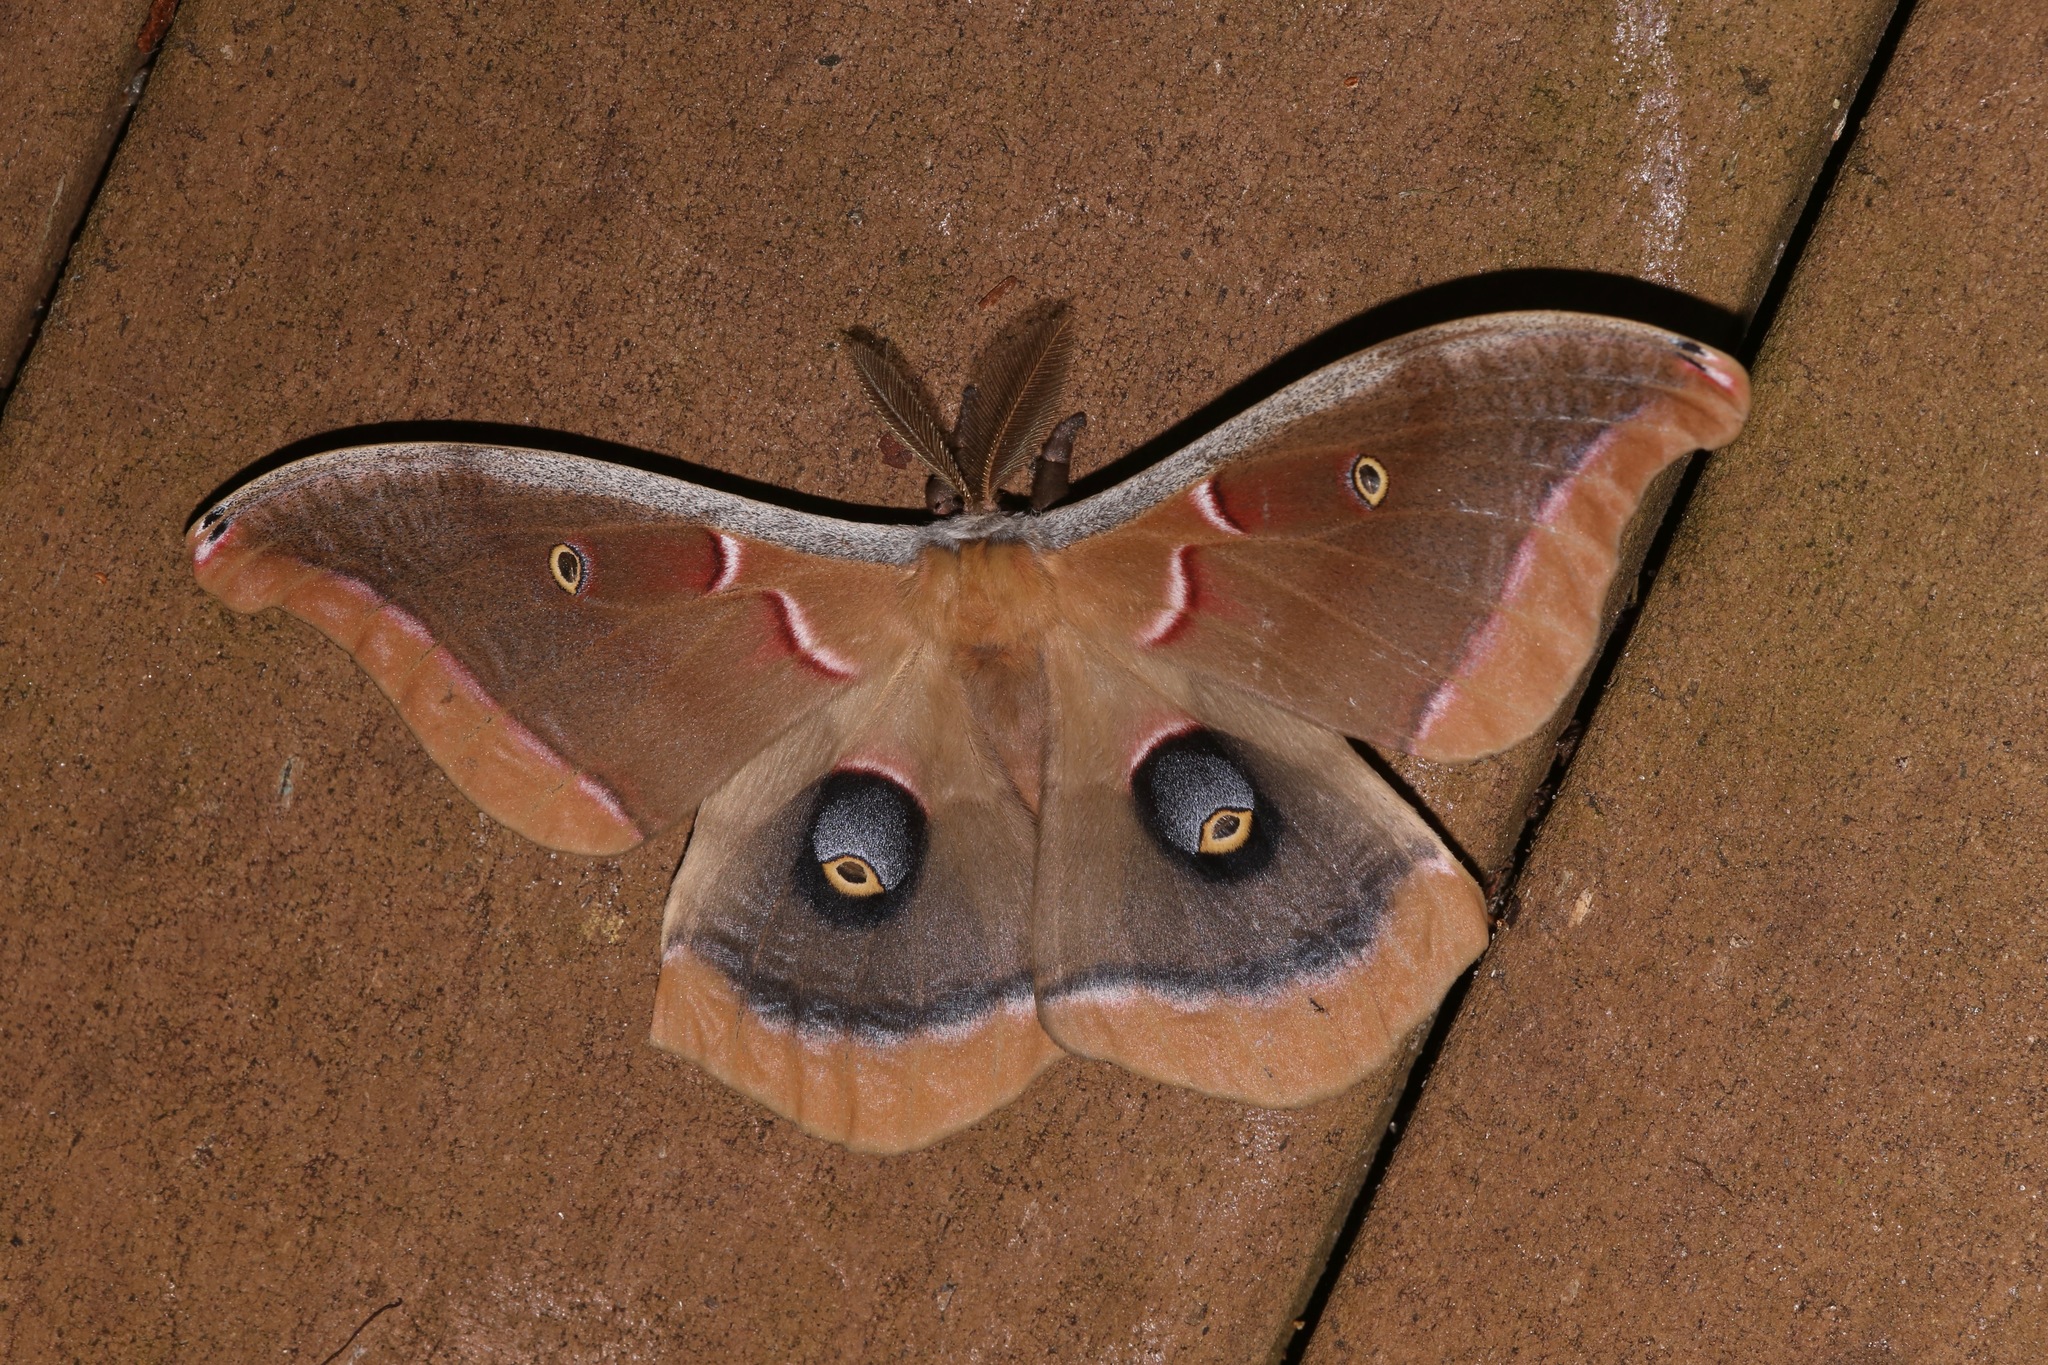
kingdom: Animalia
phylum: Arthropoda
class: Insecta
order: Lepidoptera
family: Saturniidae
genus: Antheraea
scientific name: Antheraea polyphemus
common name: Polyphemus moth
